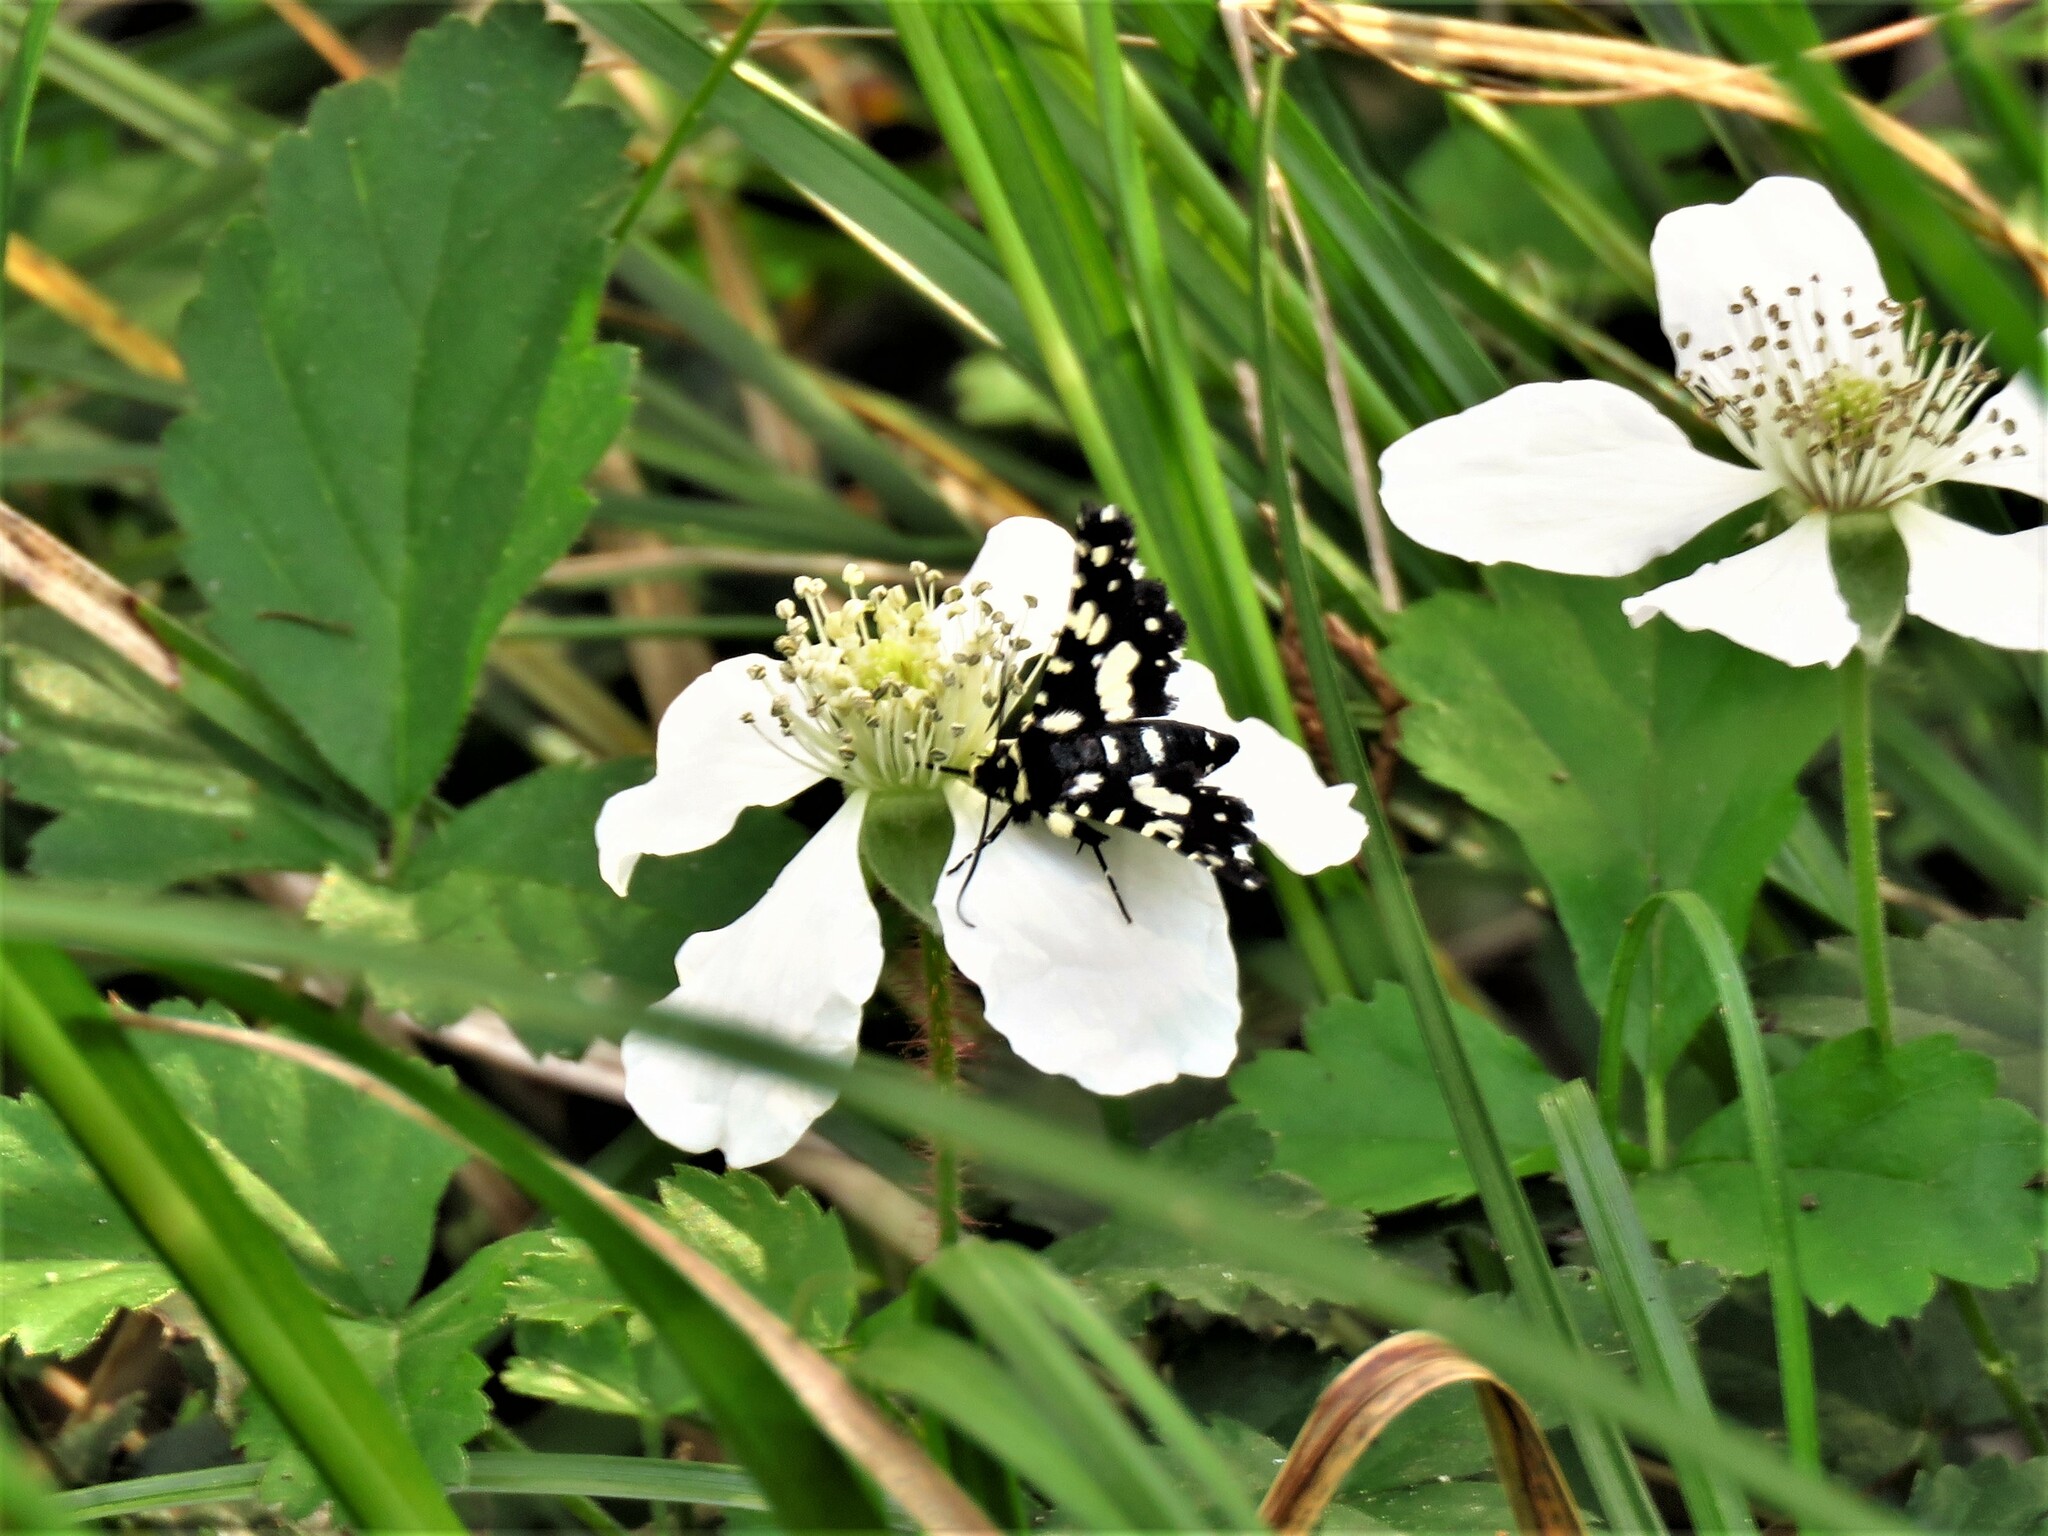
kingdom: Animalia
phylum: Arthropoda
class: Insecta
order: Lepidoptera
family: Thyrididae
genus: Pseudothyris
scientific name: Pseudothyris sepulchralis
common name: Mournful thyris moth
